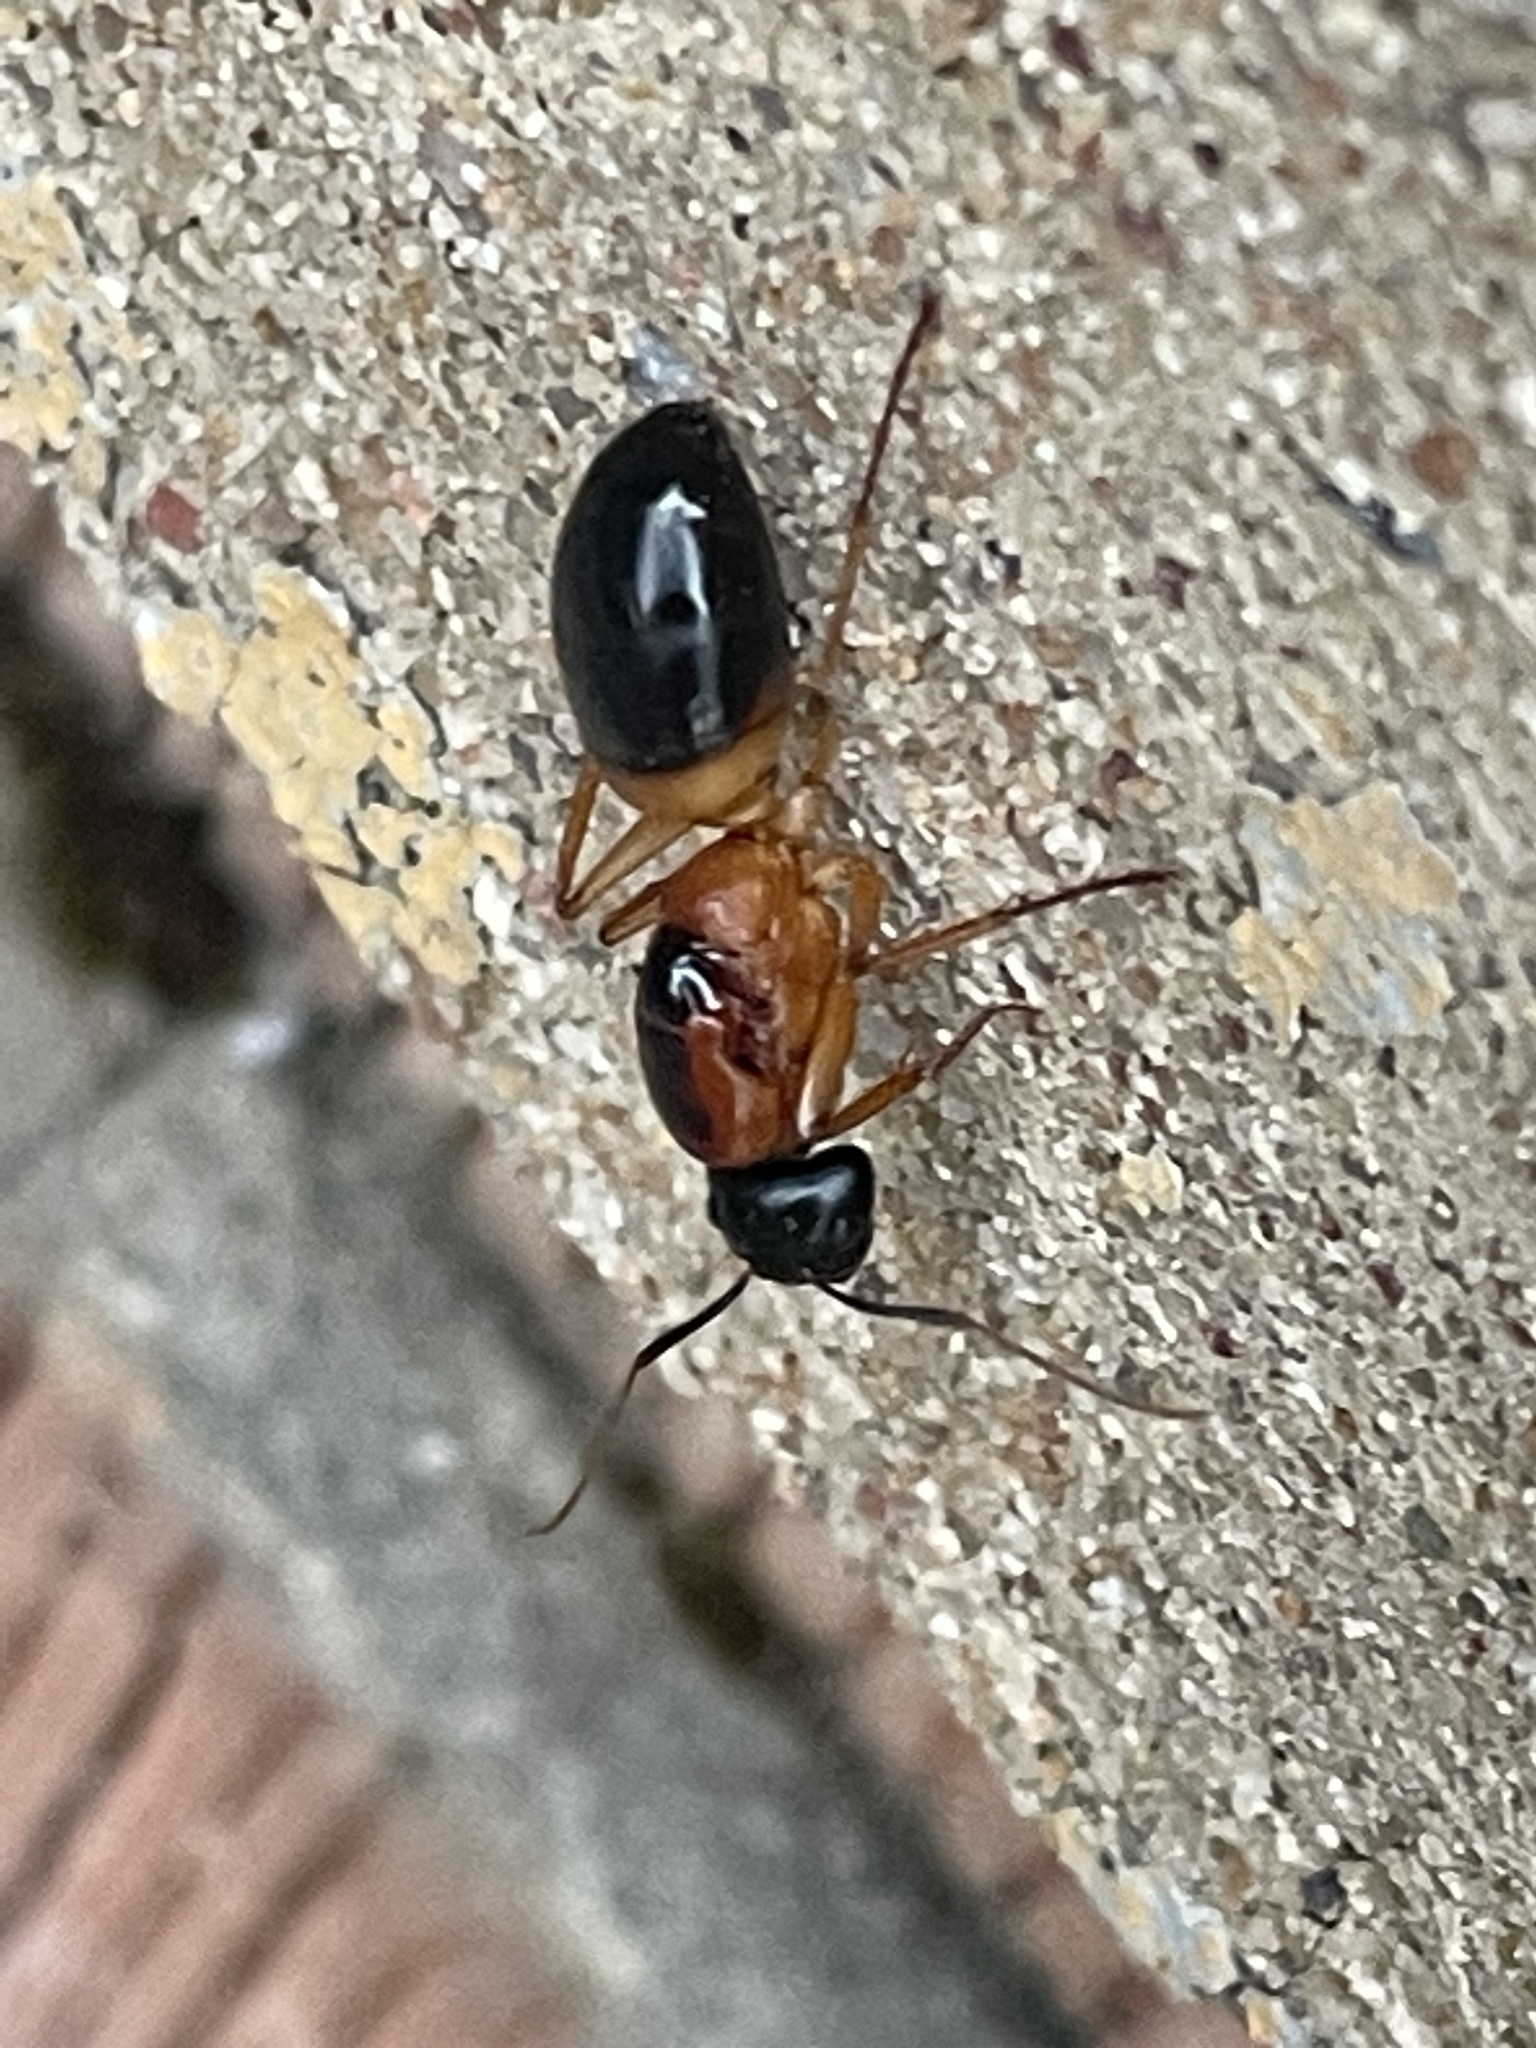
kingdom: Animalia
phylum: Arthropoda
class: Insecta
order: Hymenoptera
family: Formicidae
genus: Camponotus
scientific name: Camponotus consobrinus
